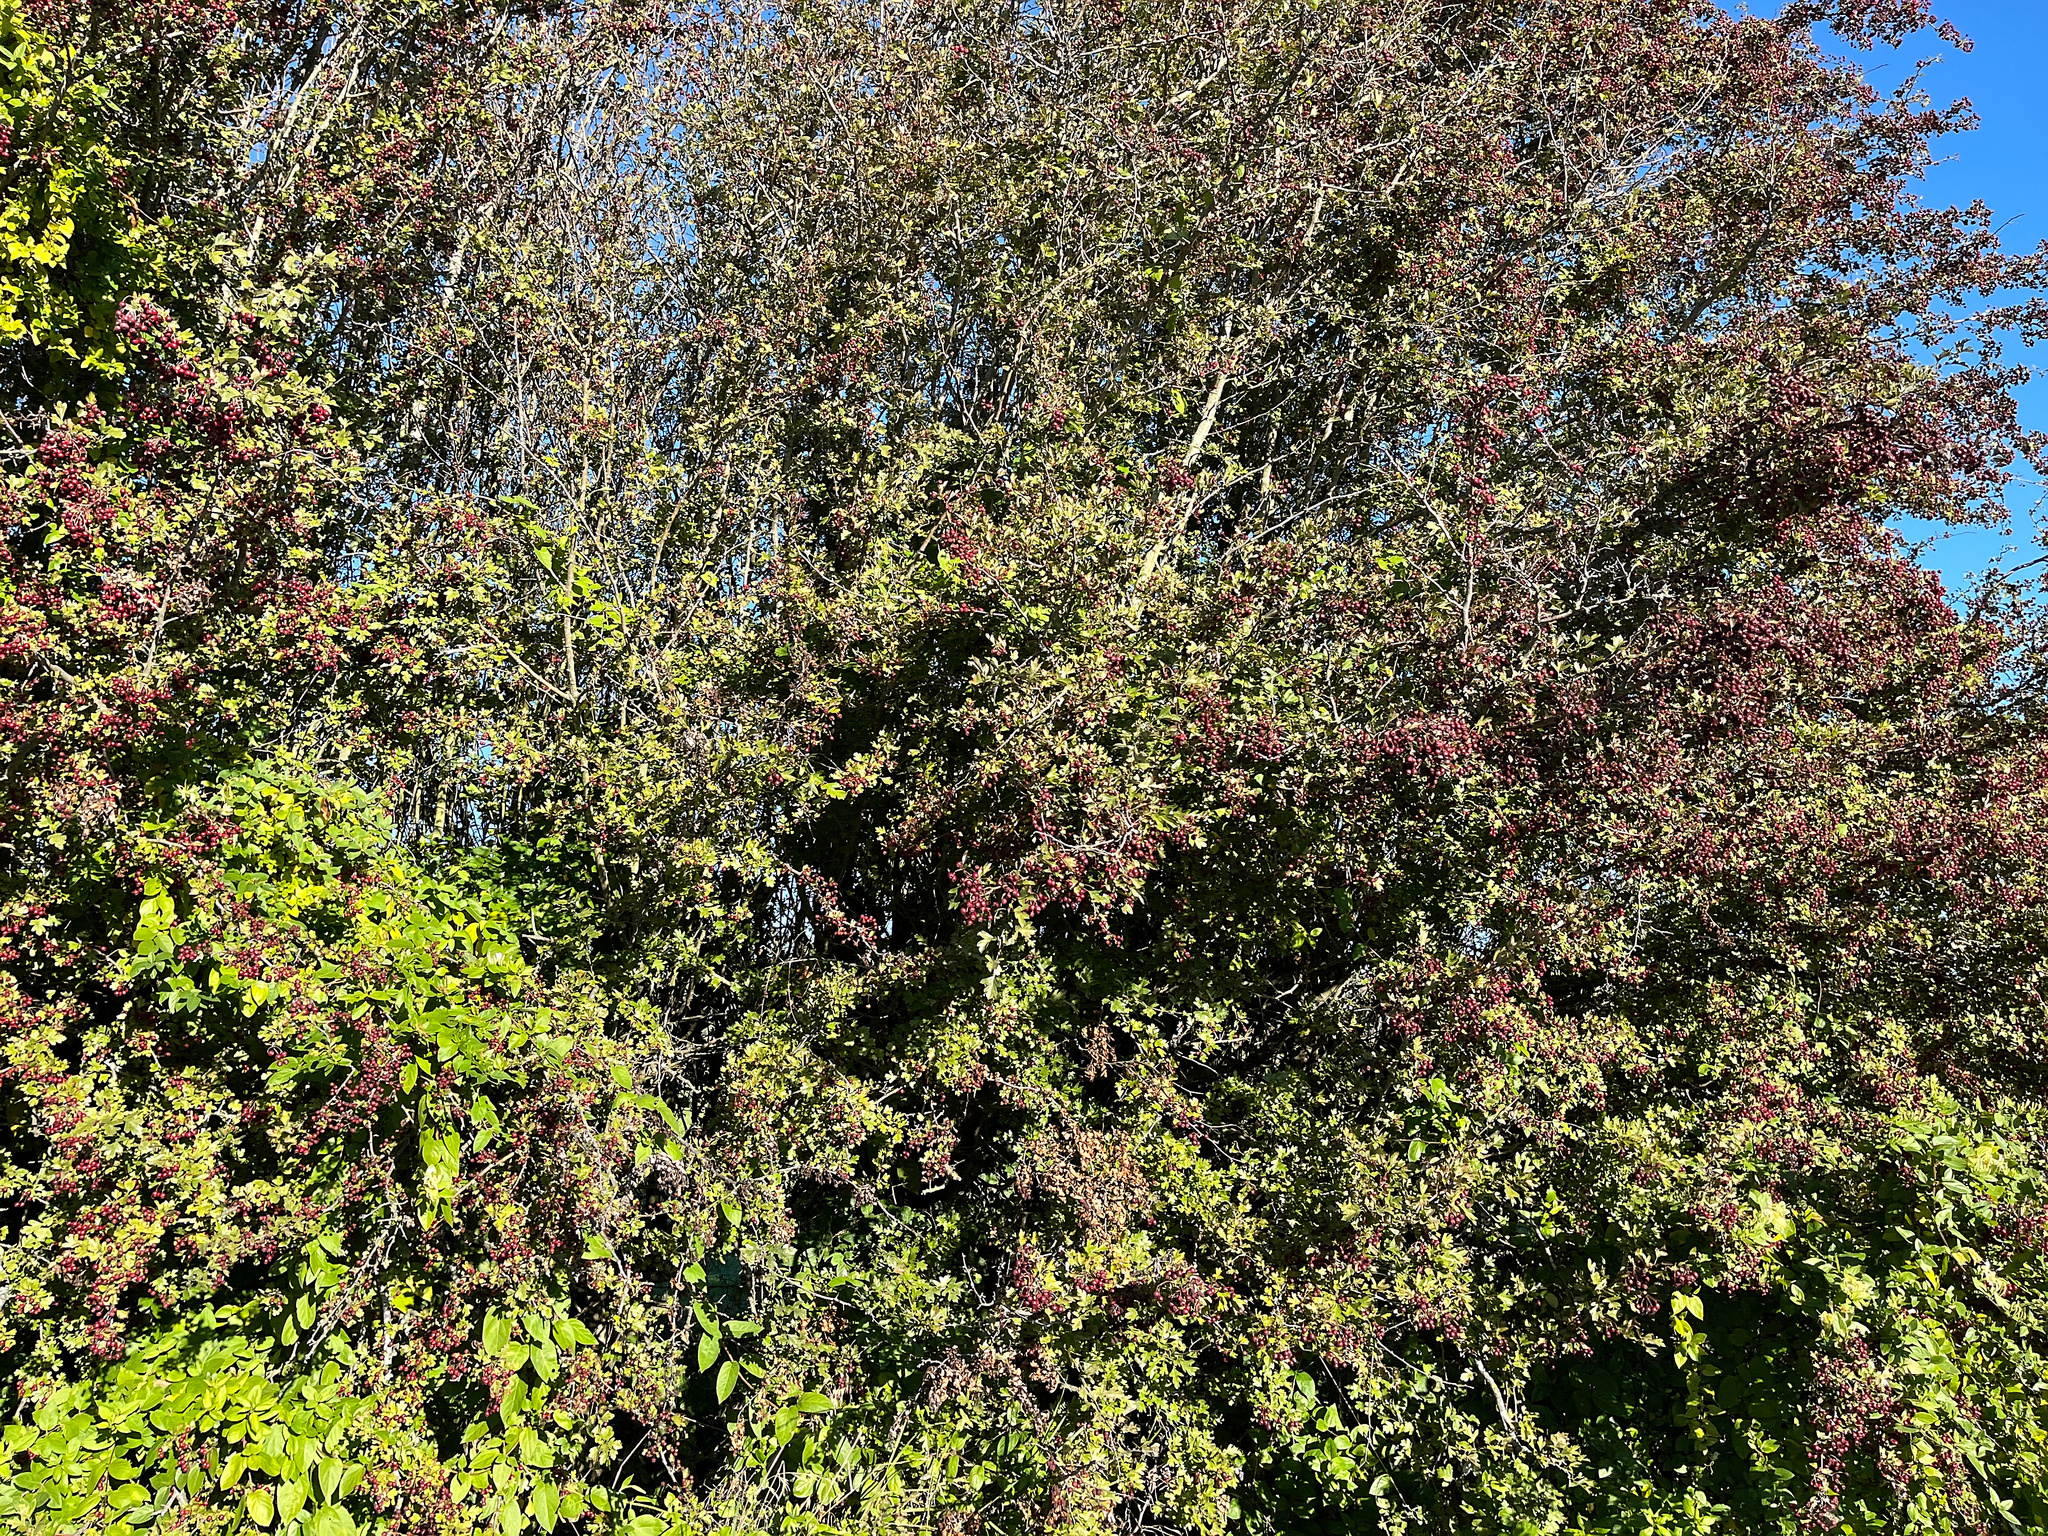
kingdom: Plantae
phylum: Tracheophyta
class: Magnoliopsida
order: Rosales
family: Rosaceae
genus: Crataegus
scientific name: Crataegus monogyna
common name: Hawthorn
